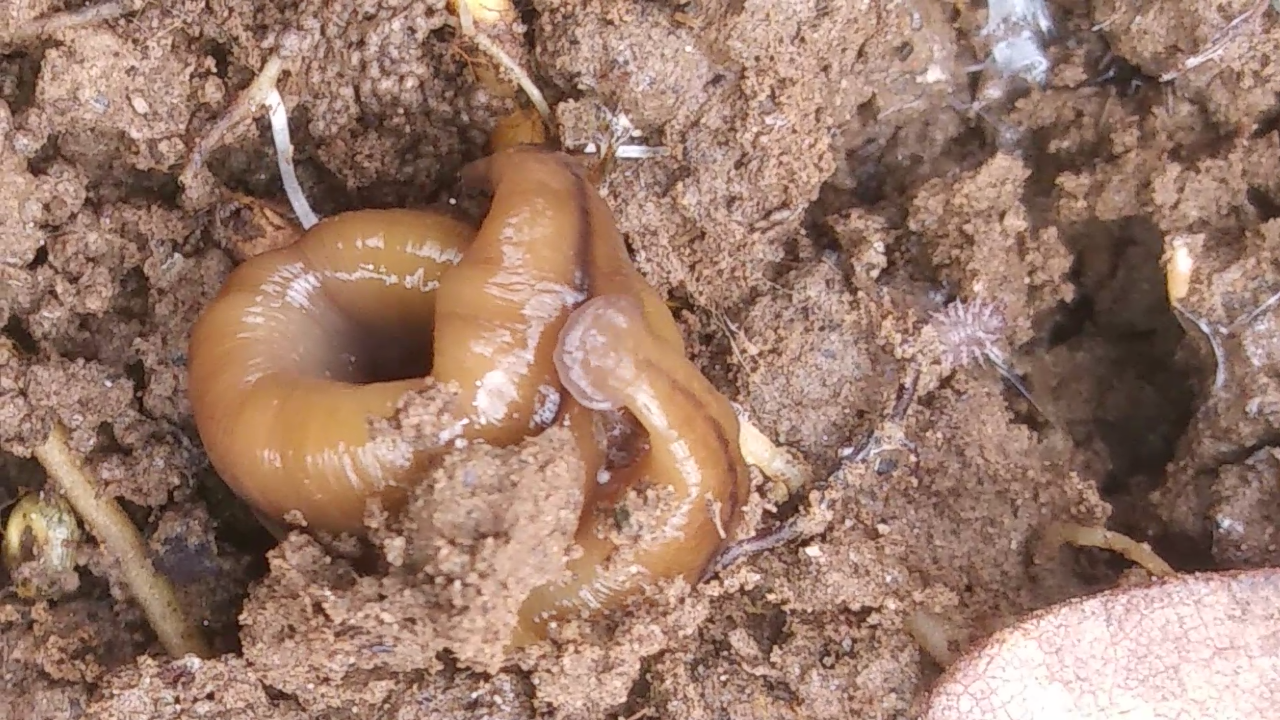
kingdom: Animalia
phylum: Platyhelminthes
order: Tricladida
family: Geoplanidae
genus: Bipalium
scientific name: Bipalium adventitium
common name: Land planarian
